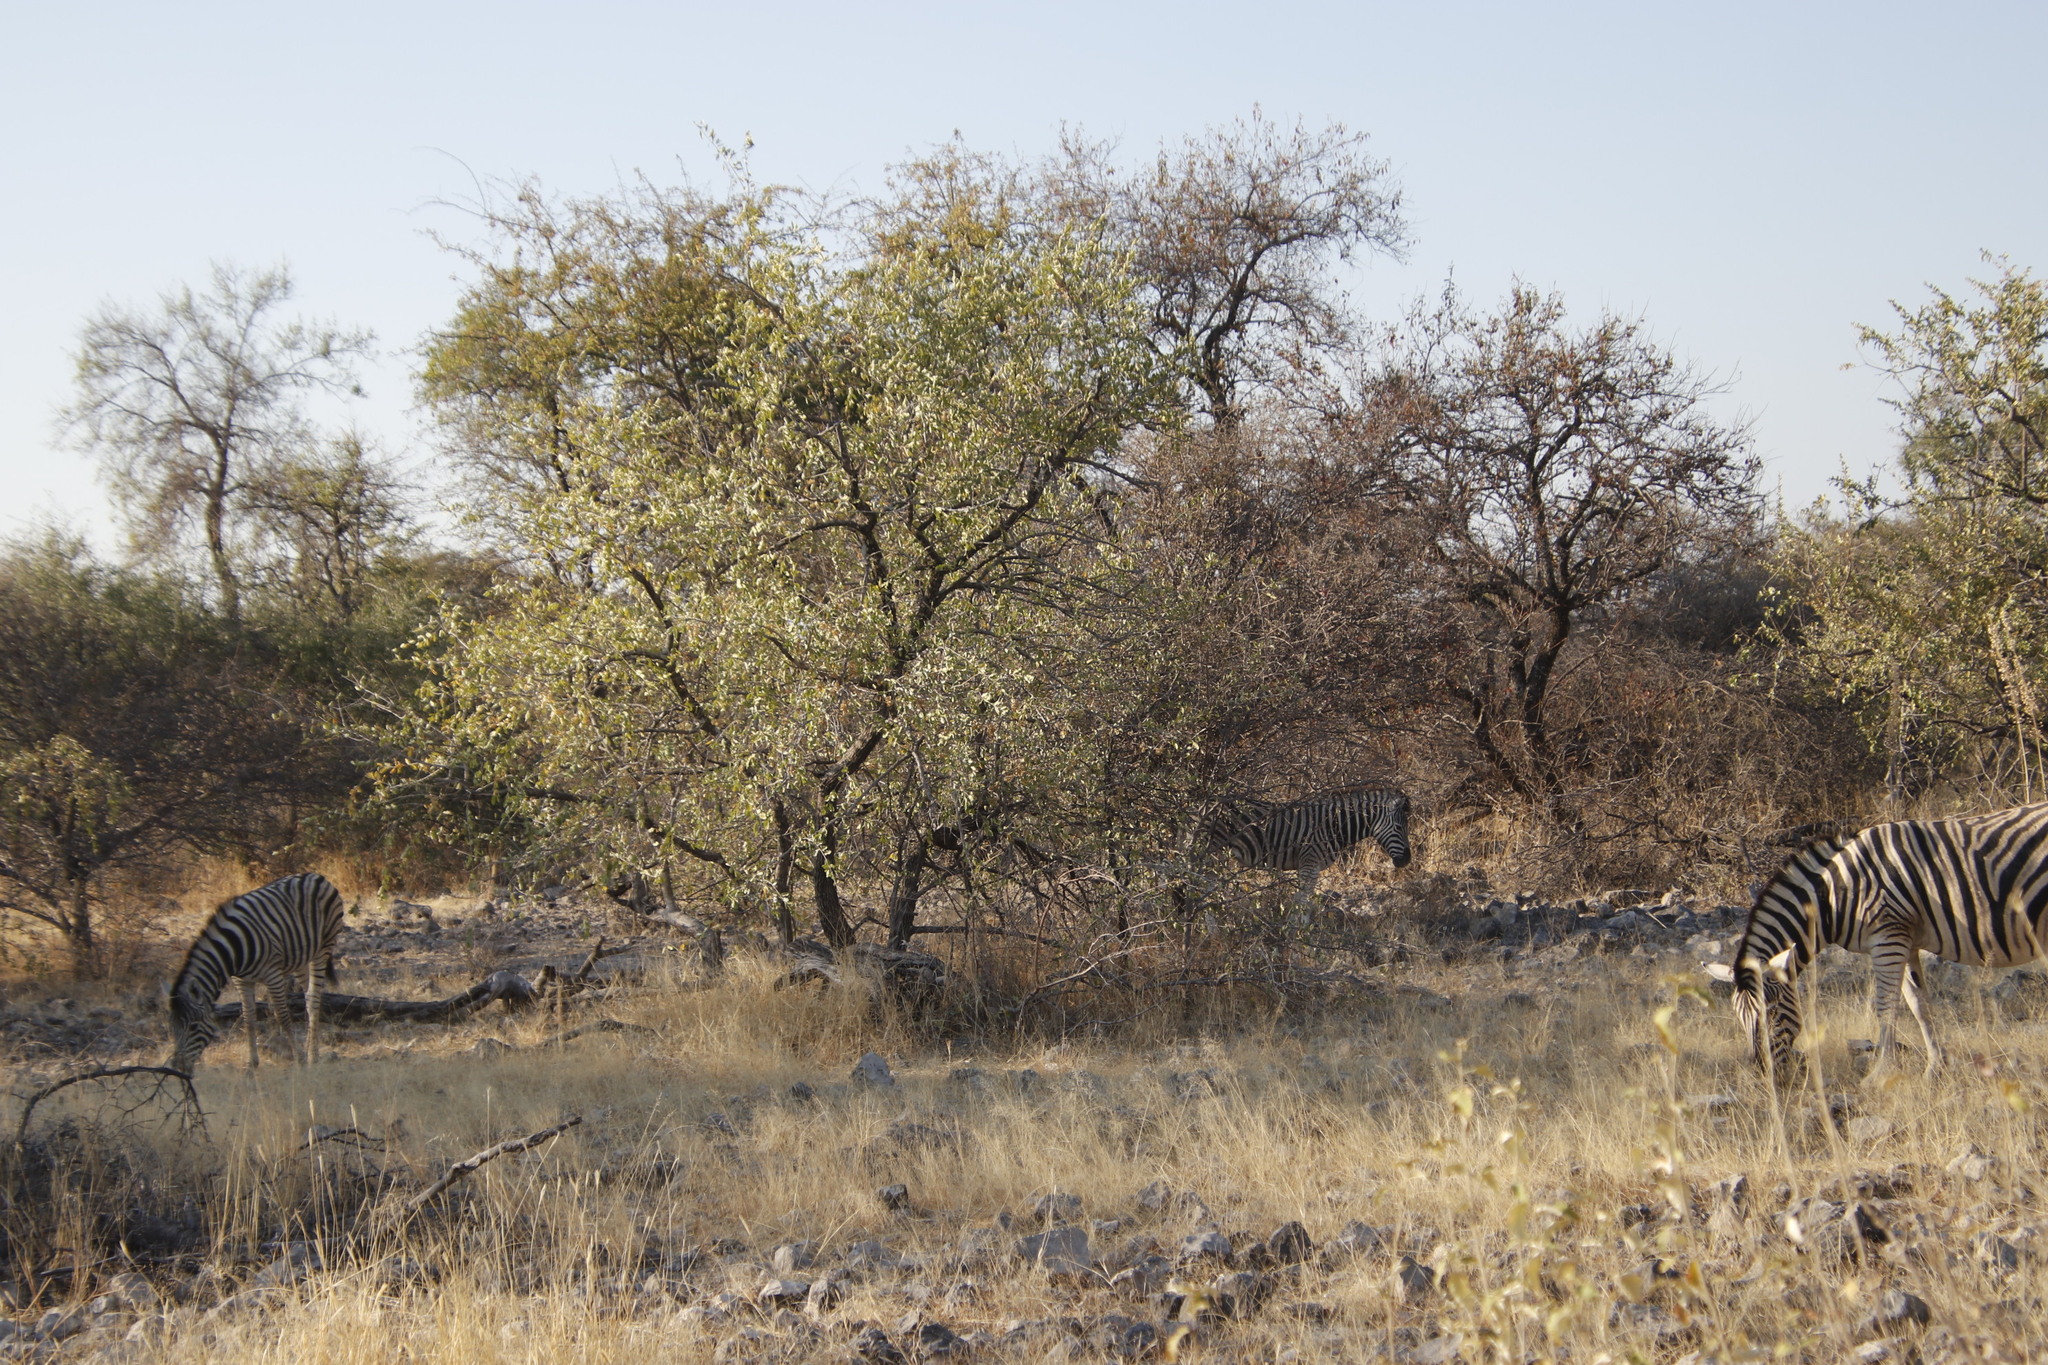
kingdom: Animalia
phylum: Chordata
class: Mammalia
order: Perissodactyla
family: Equidae
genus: Equus
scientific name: Equus quagga
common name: Plains zebra
